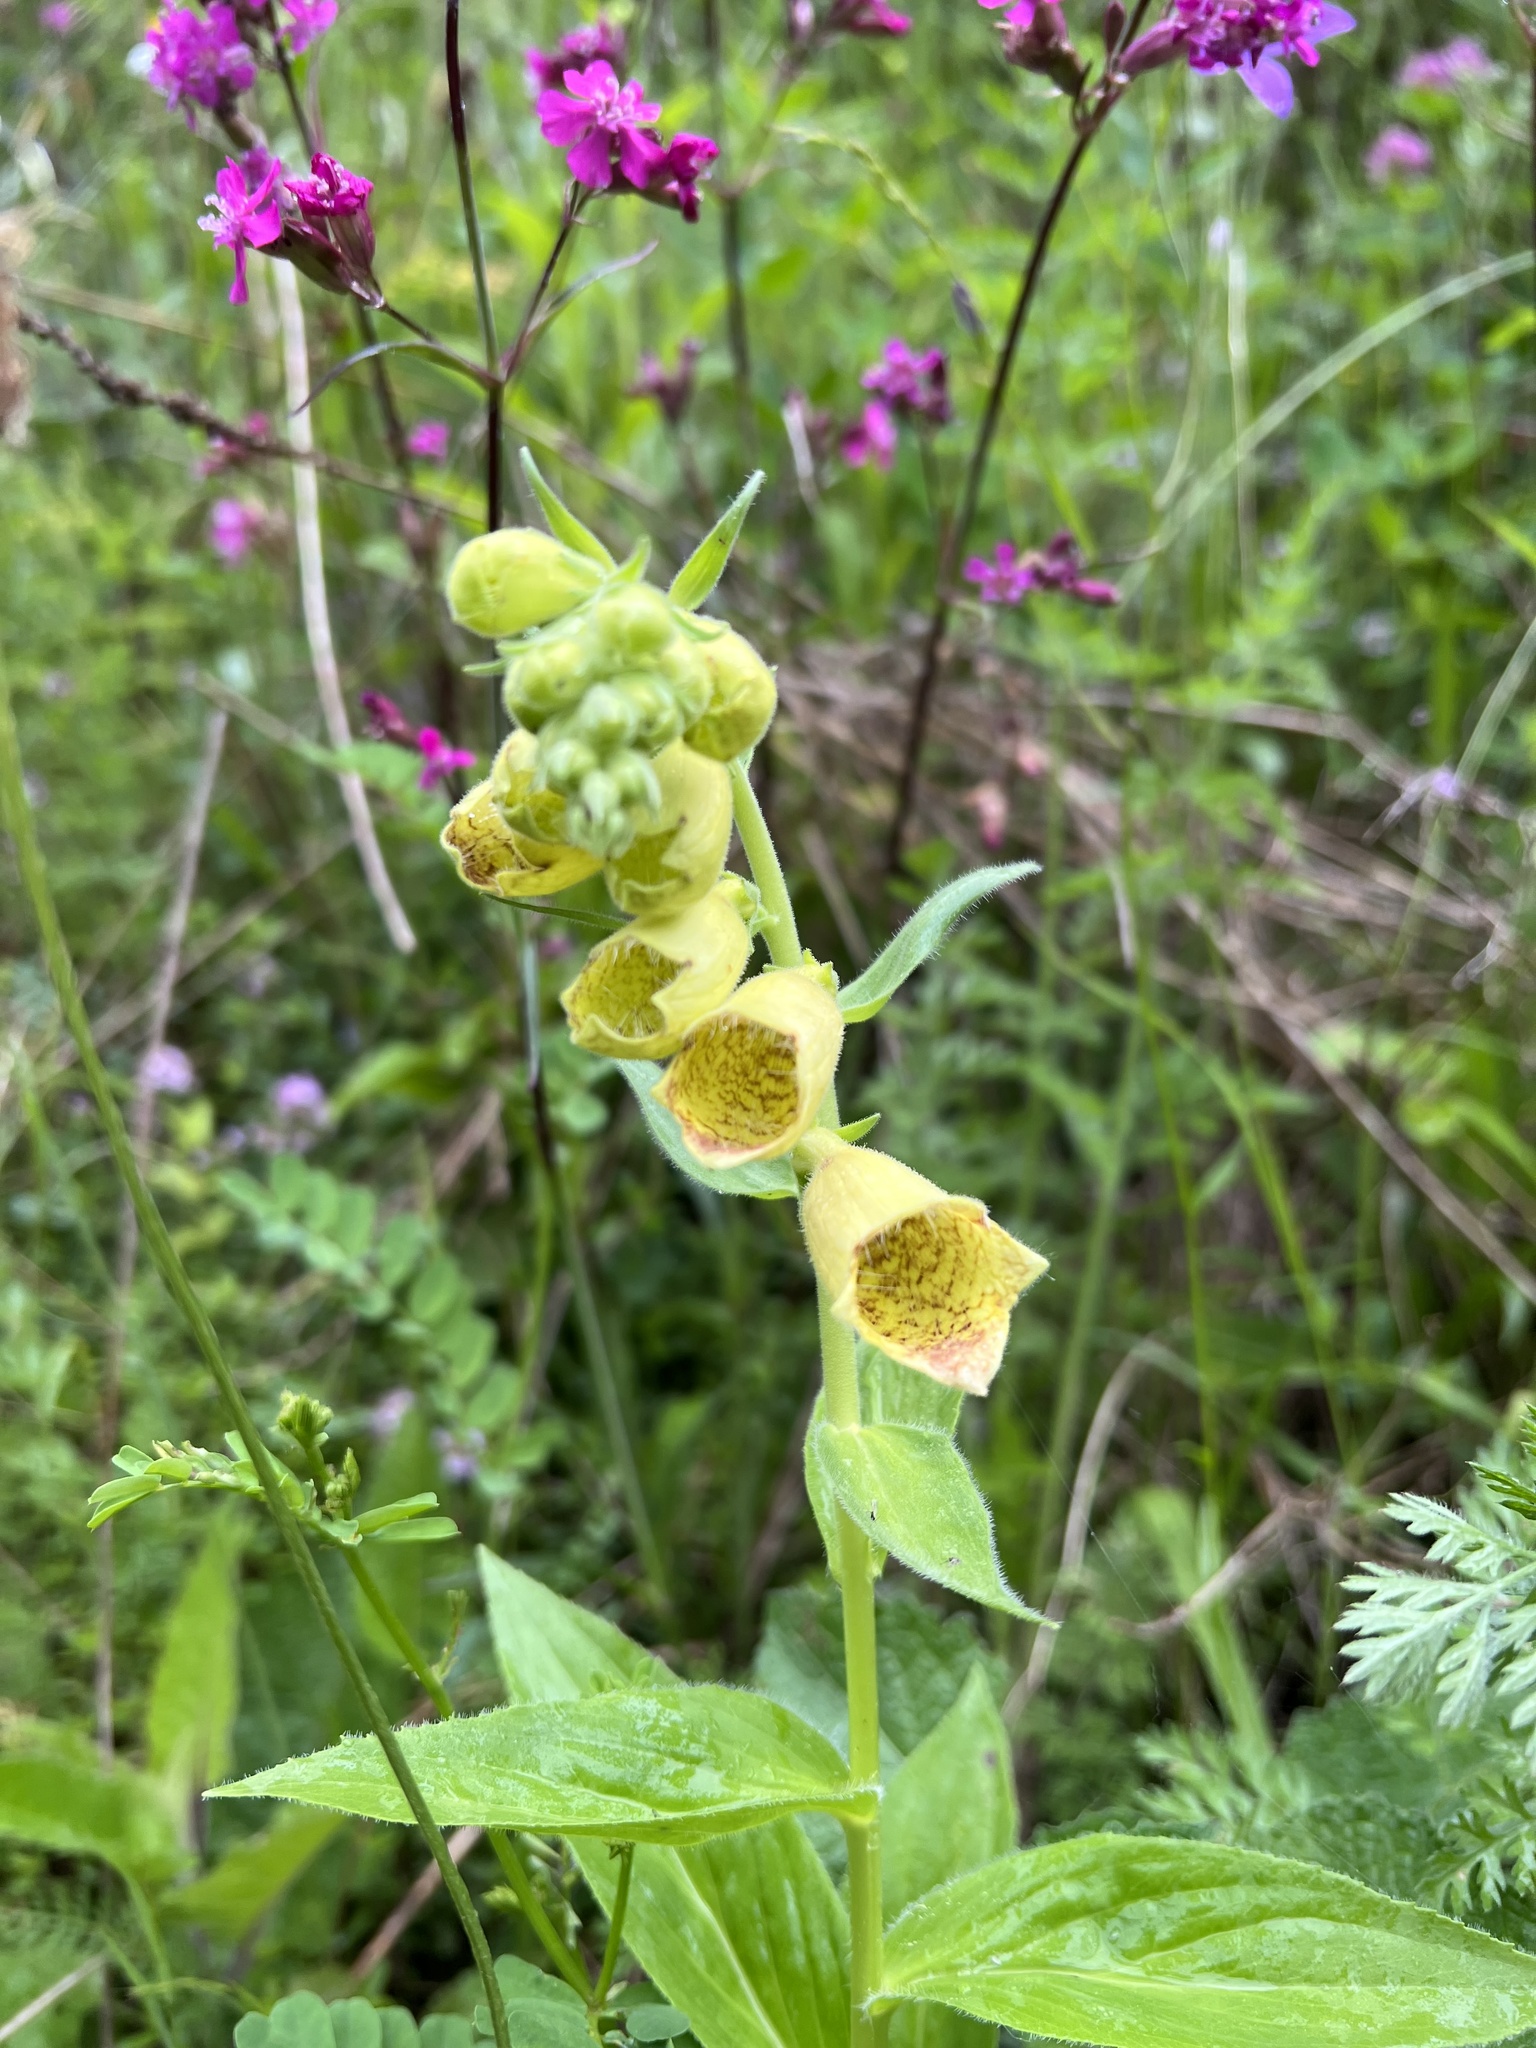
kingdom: Plantae
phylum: Tracheophyta
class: Magnoliopsida
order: Lamiales
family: Plantaginaceae
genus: Digitalis
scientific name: Digitalis grandiflora
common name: Yellow foxglove
